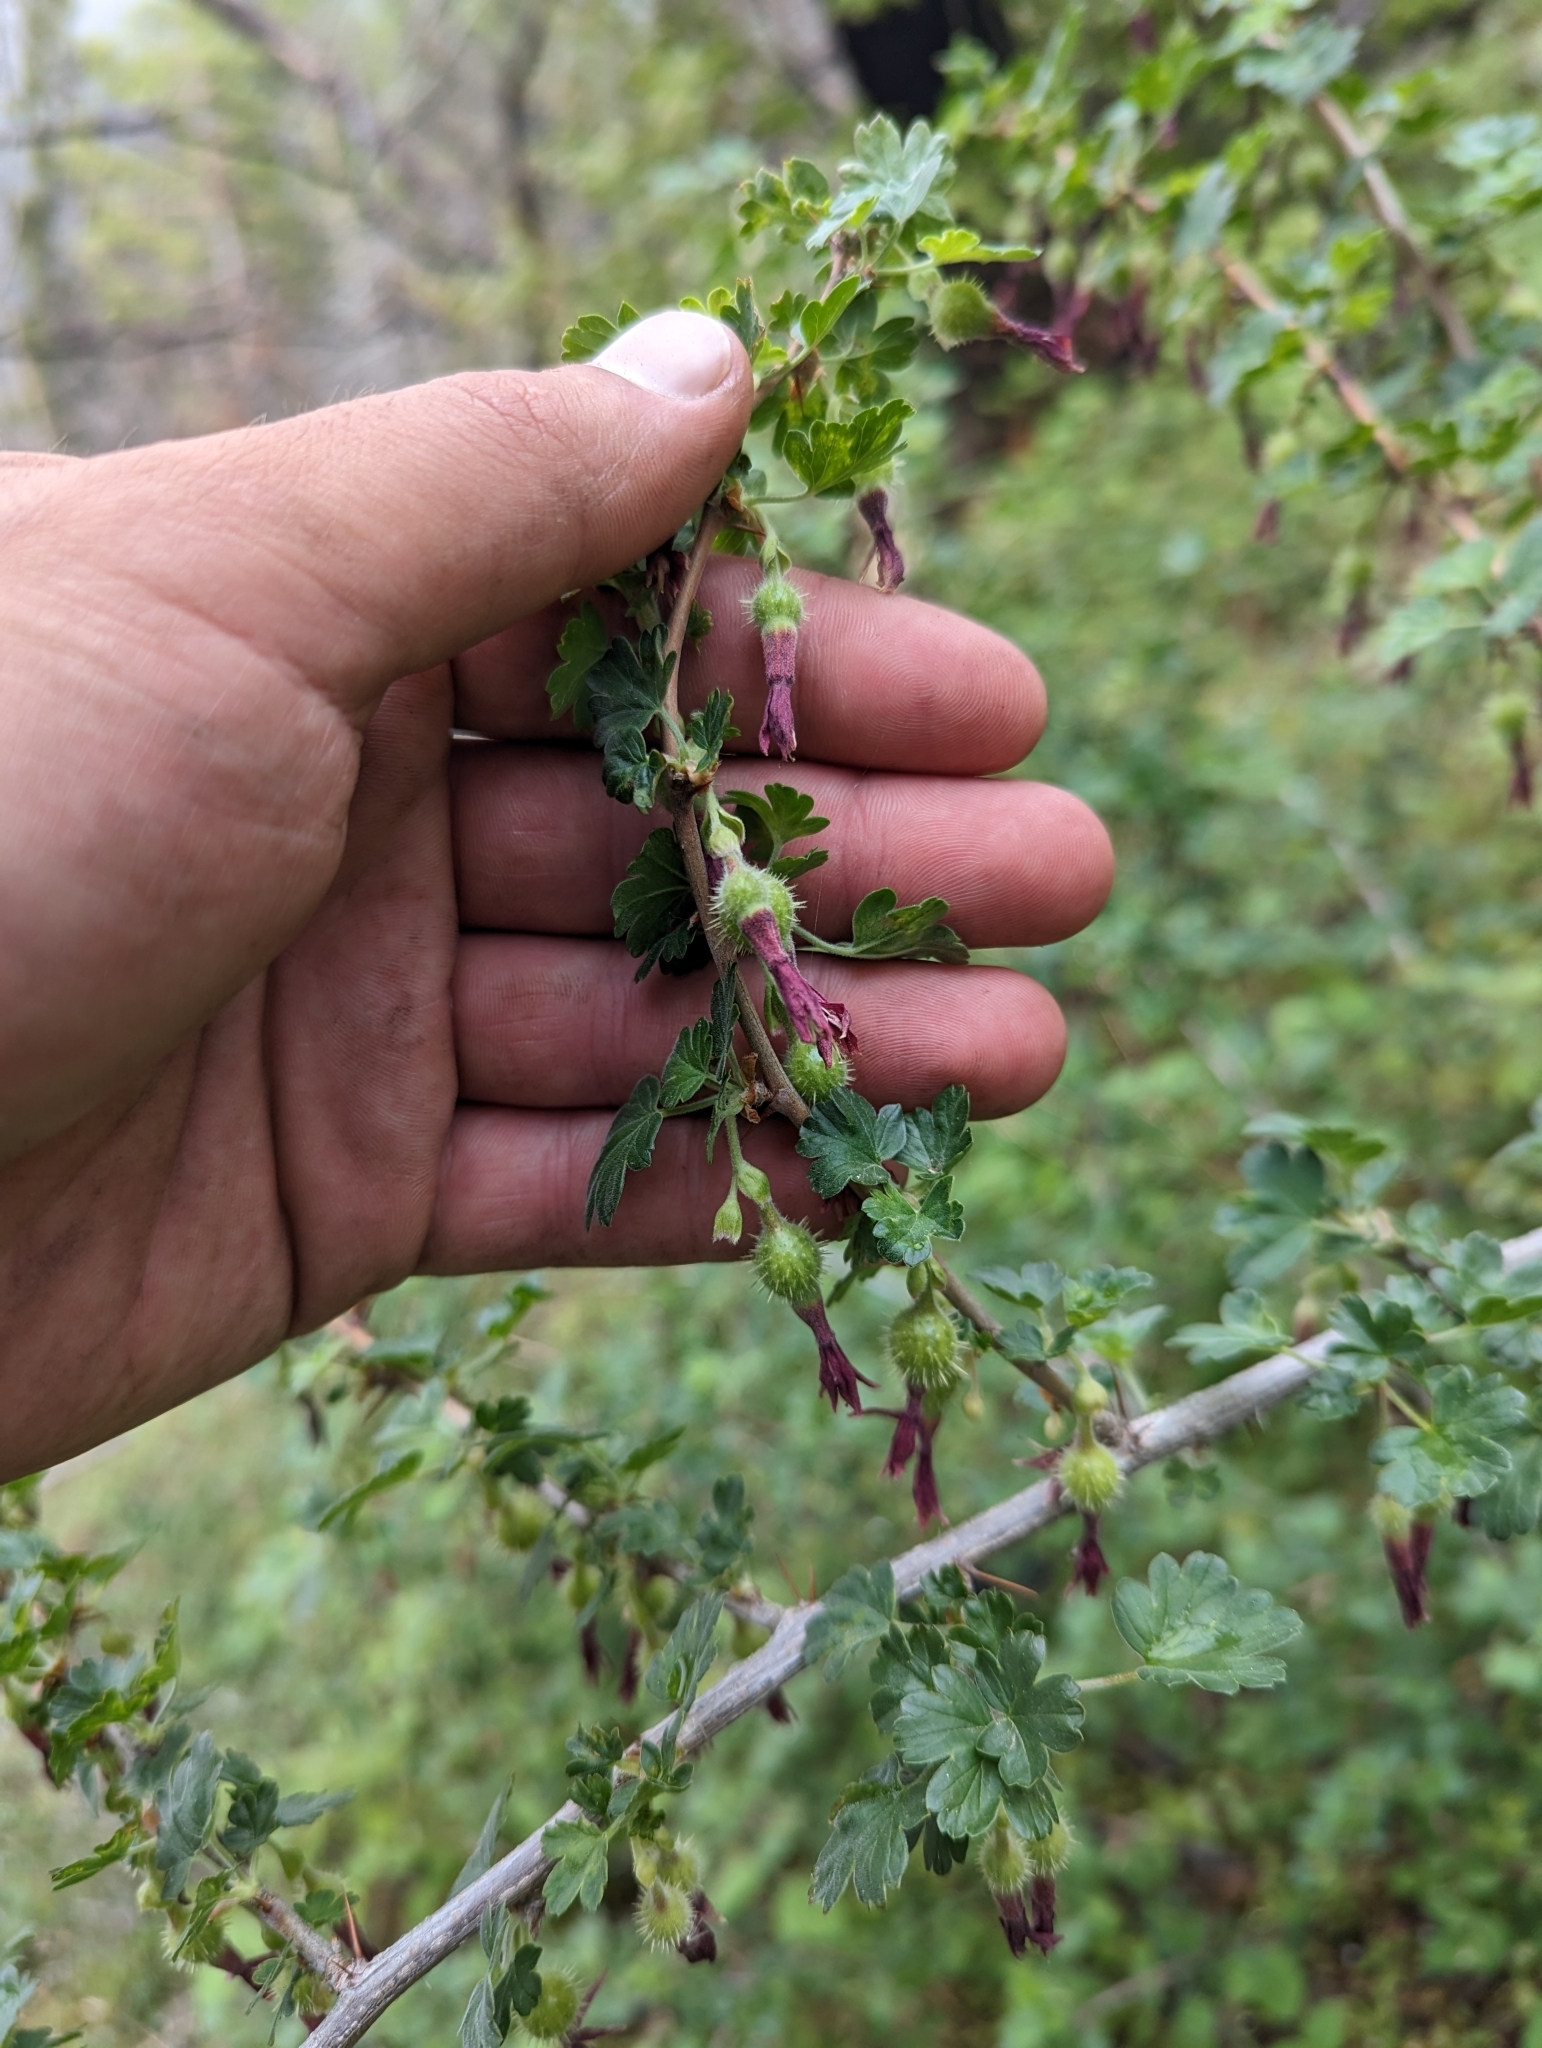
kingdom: Plantae
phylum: Tracheophyta
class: Magnoliopsida
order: Saxifragales
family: Grossulariaceae
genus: Ribes
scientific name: Ribes roezlii
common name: Sierra gooseberry
